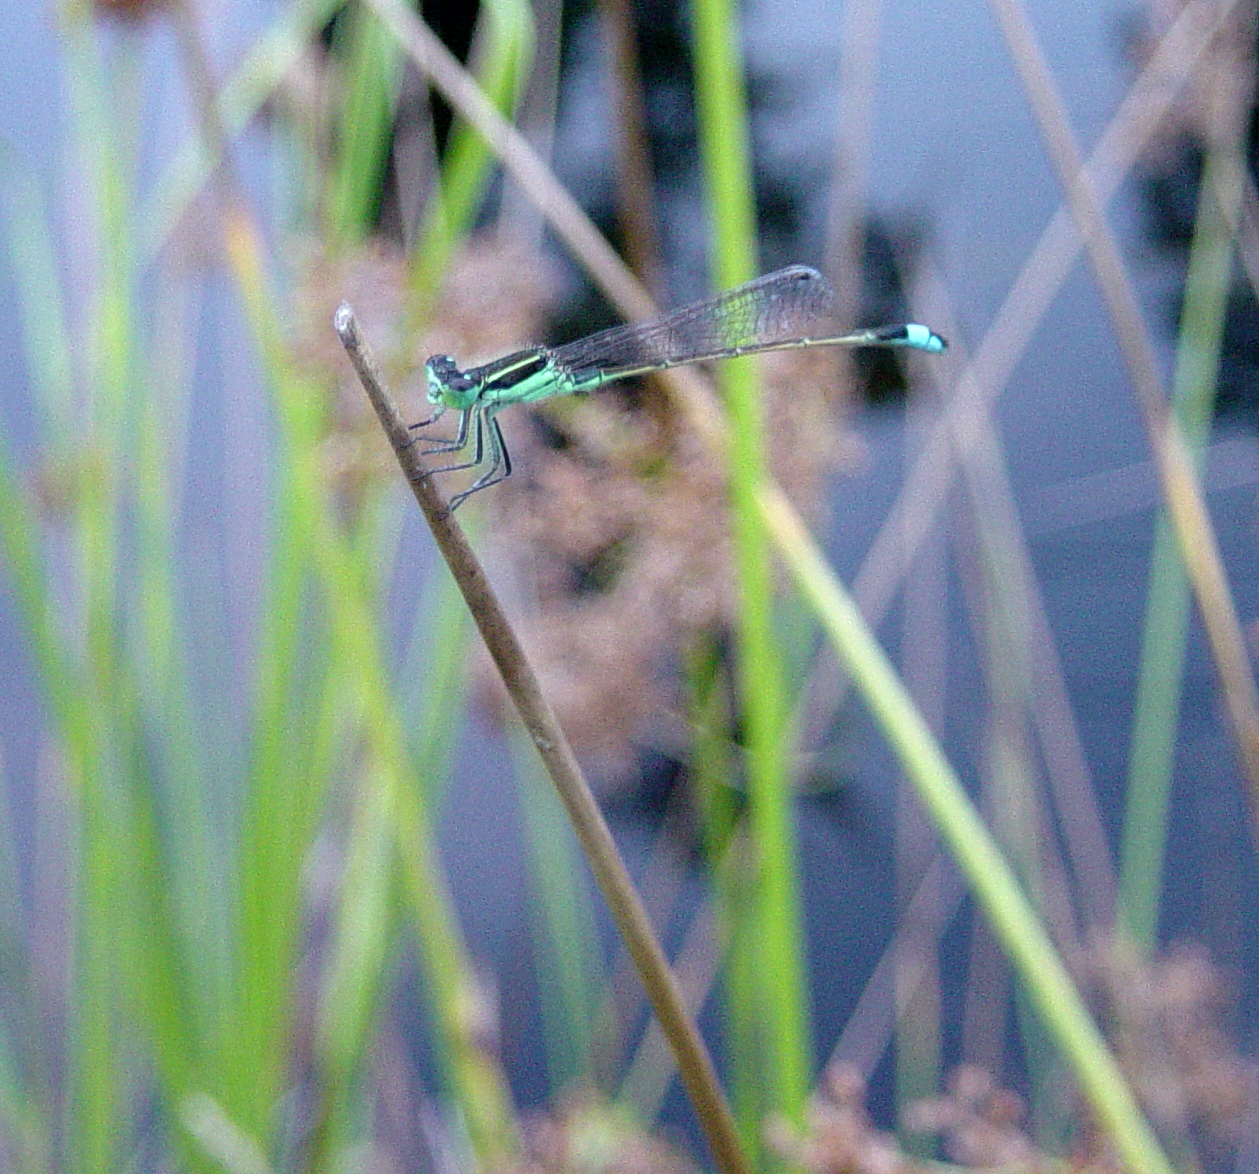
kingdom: Animalia
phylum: Arthropoda
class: Insecta
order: Odonata
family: Coenagrionidae
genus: Ischnura
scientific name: Ischnura ramburii
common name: Rambur's forktail
